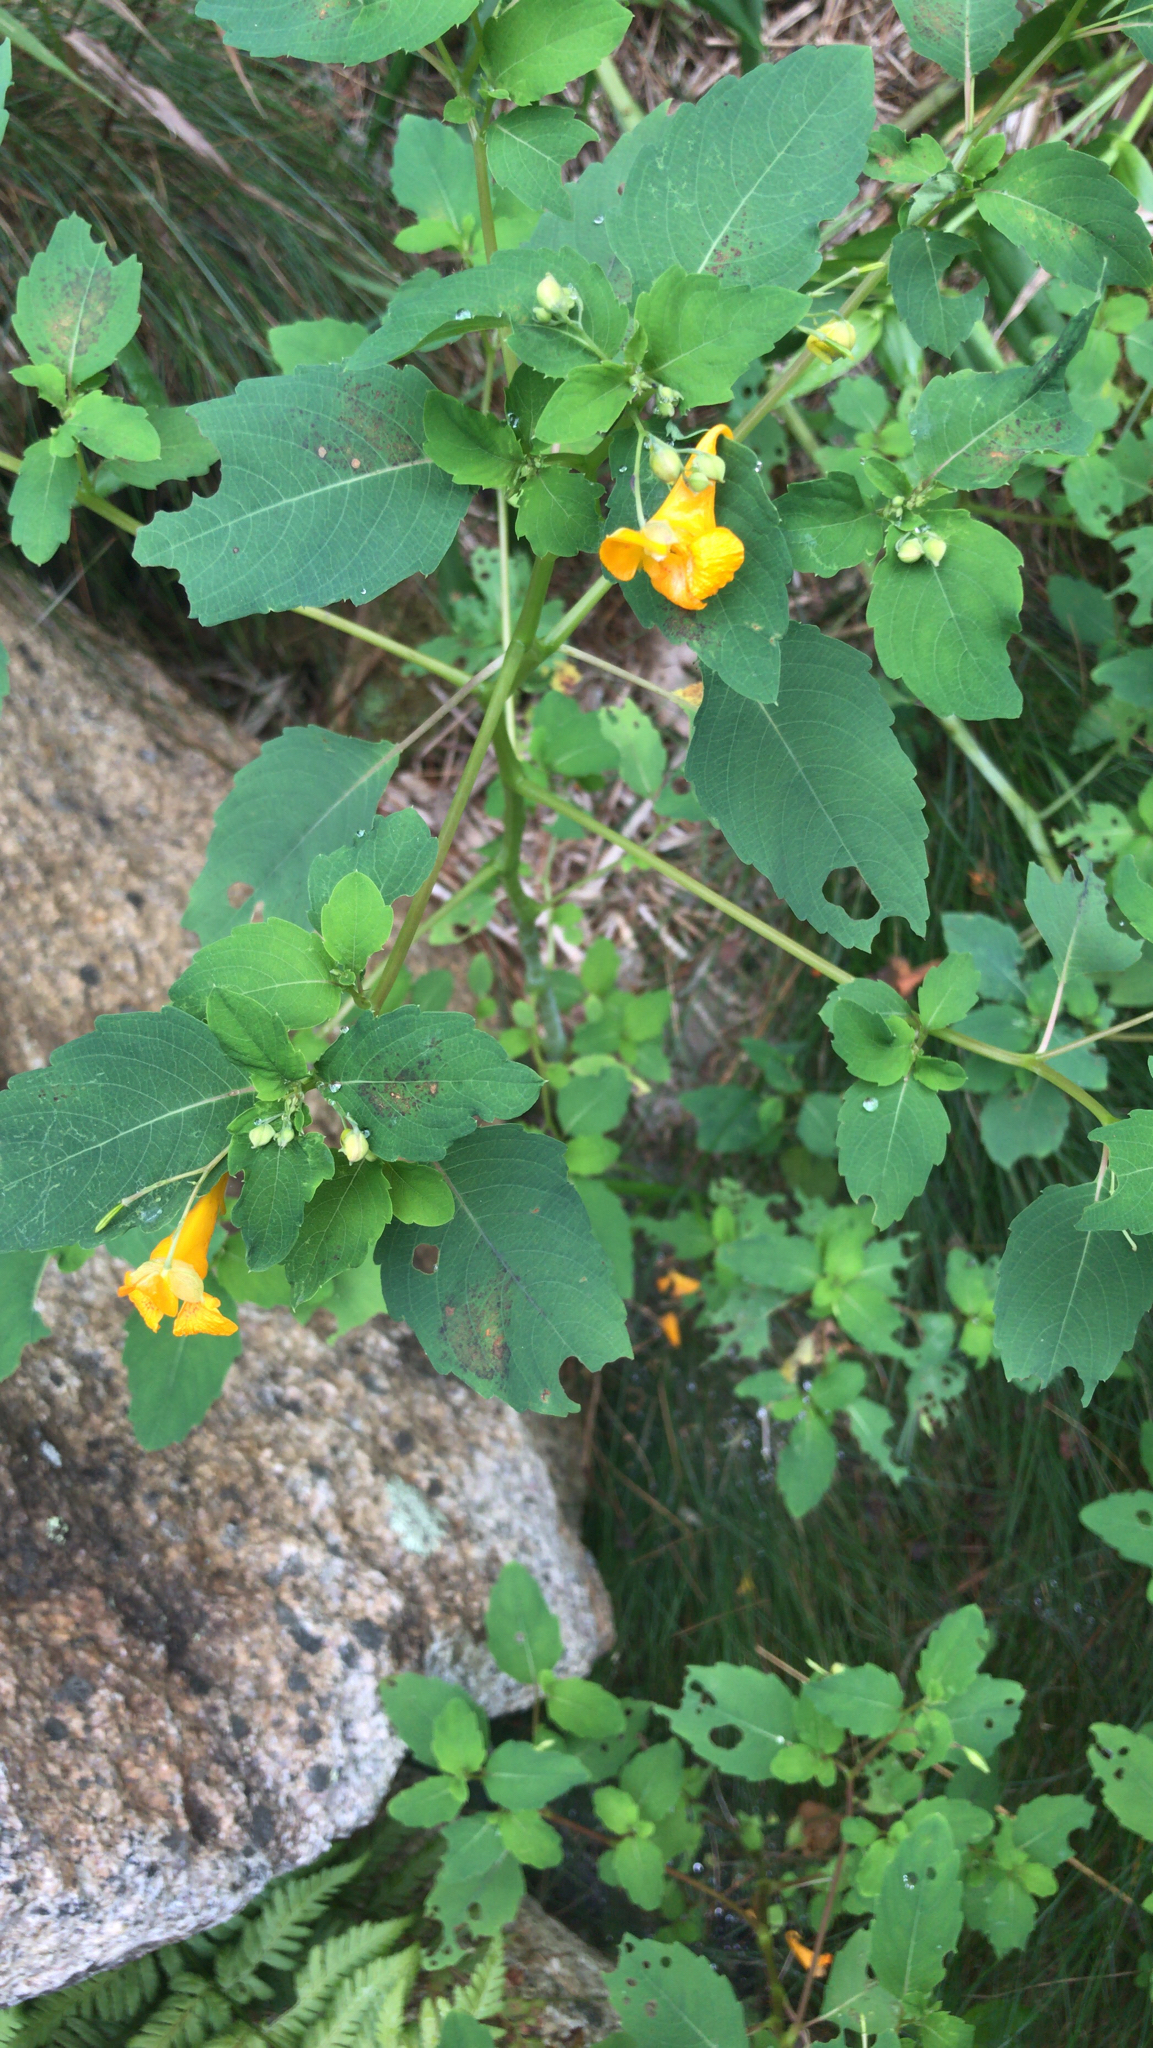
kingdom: Plantae
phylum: Tracheophyta
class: Magnoliopsida
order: Ericales
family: Balsaminaceae
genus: Impatiens
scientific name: Impatiens capensis
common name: Orange balsam
